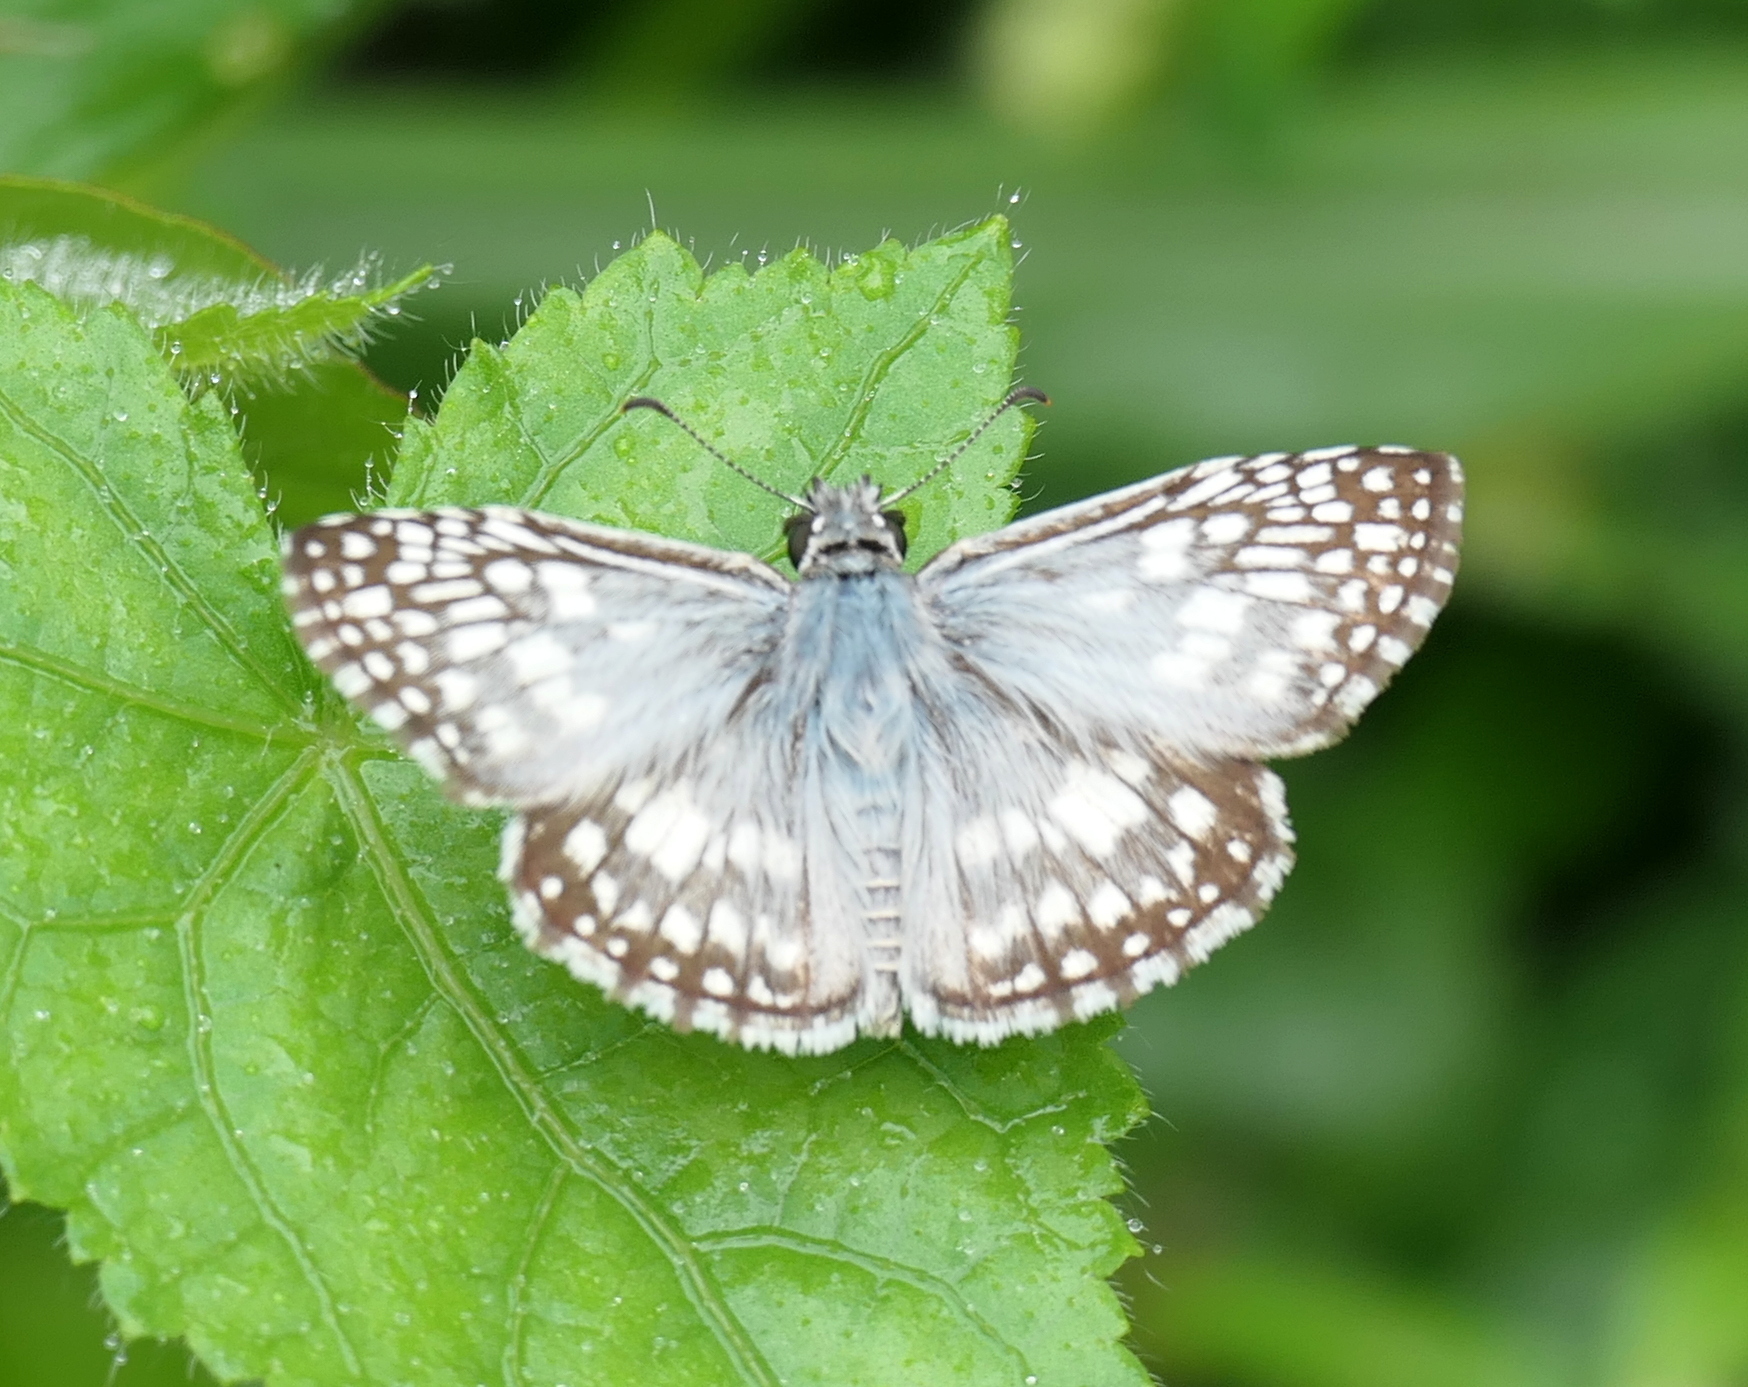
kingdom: Animalia
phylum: Arthropoda
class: Insecta
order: Lepidoptera
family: Hesperiidae
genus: Pyrgus
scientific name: Pyrgus oileus
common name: Tropical checkered-skipper
